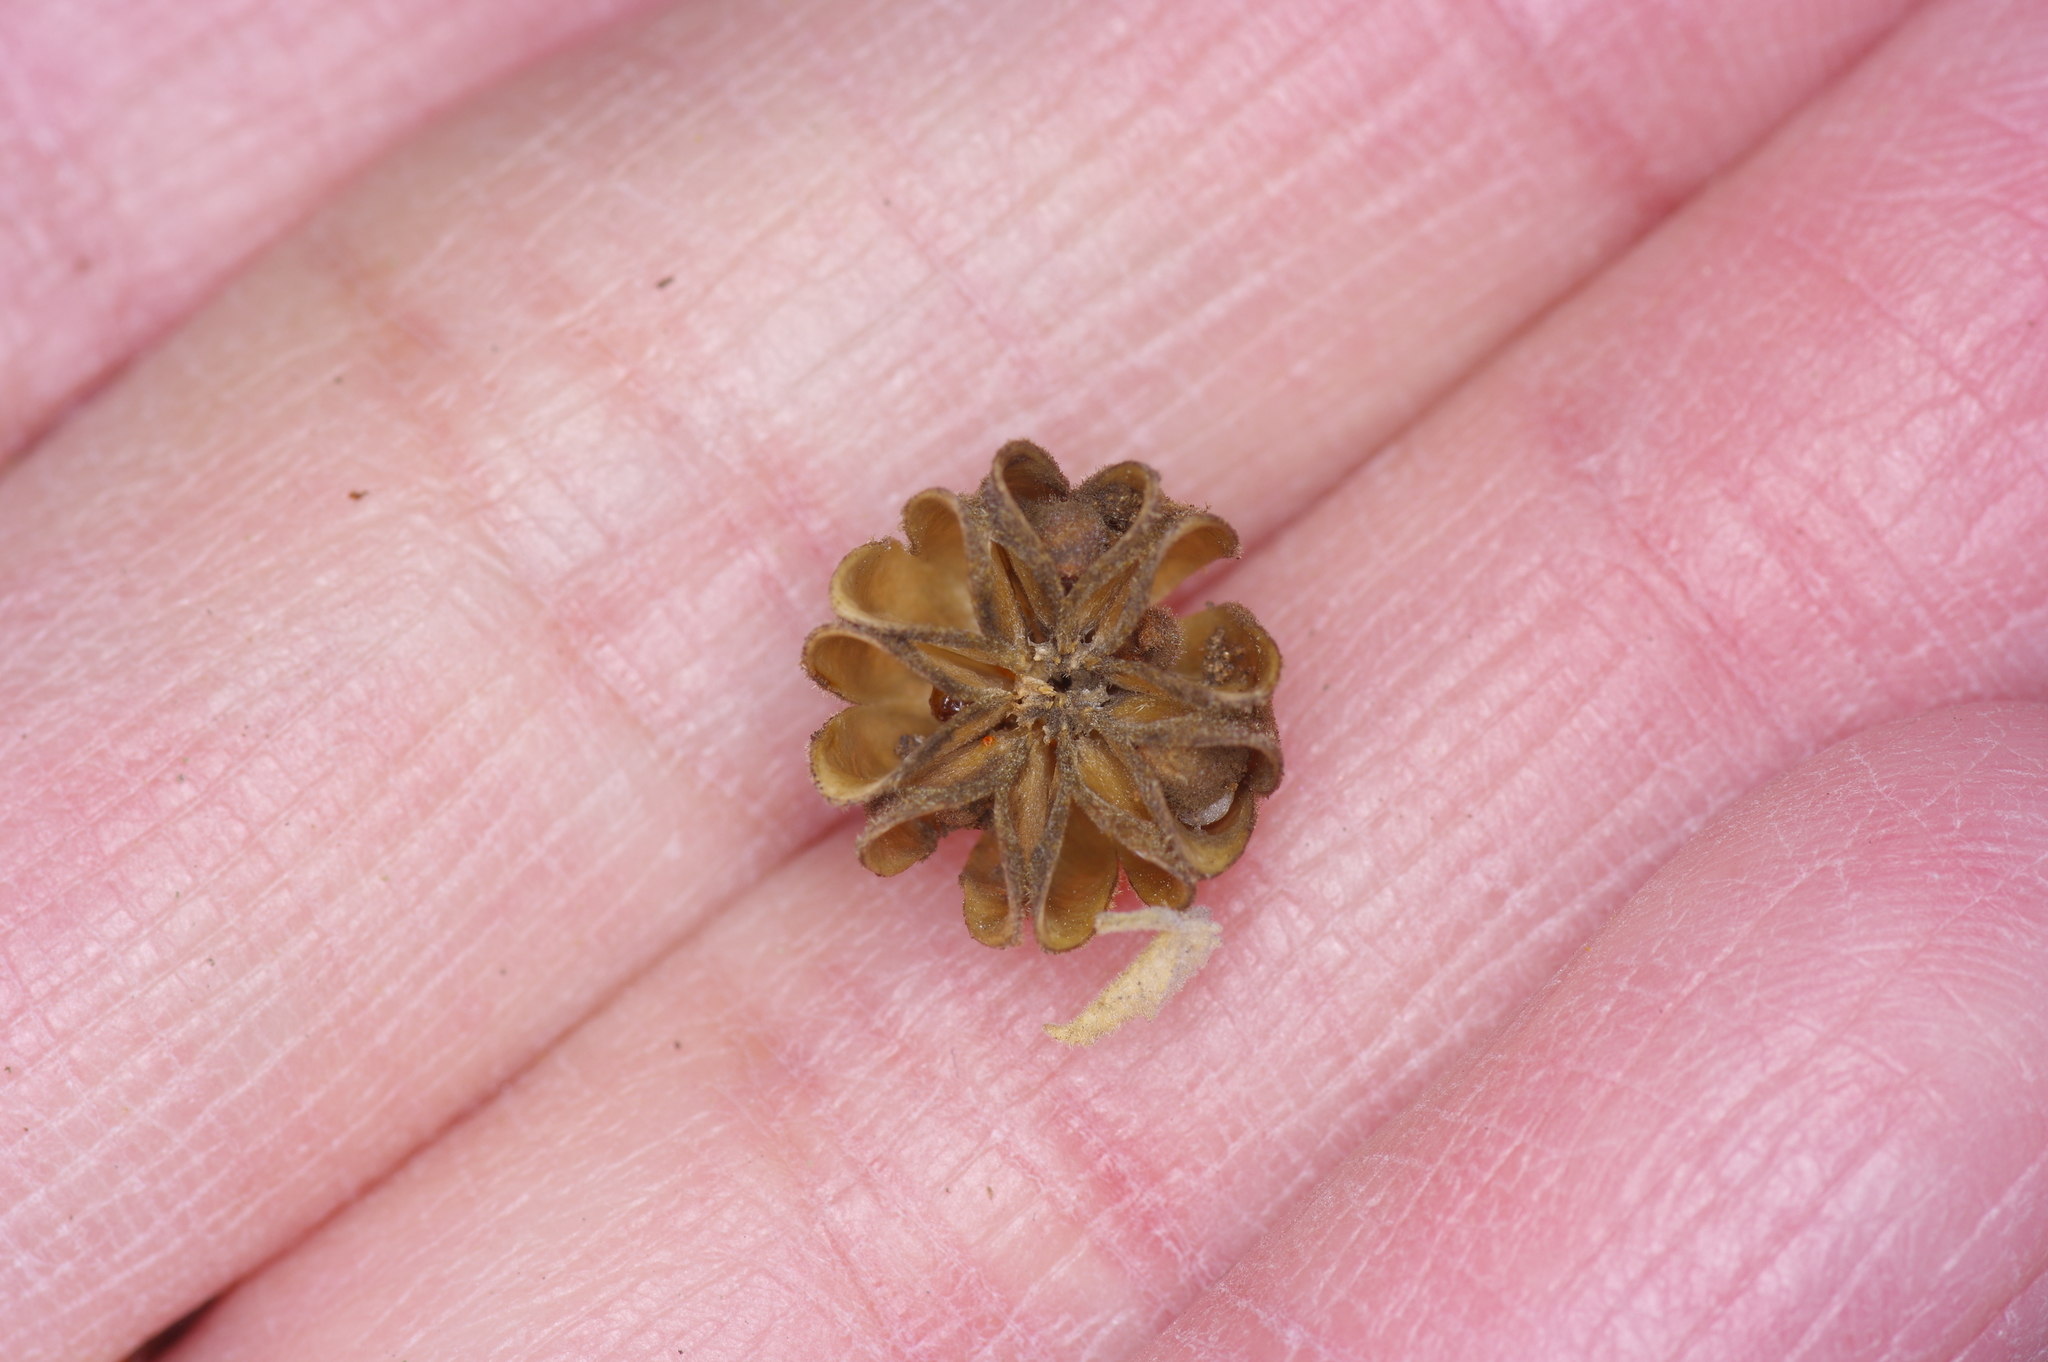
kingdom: Plantae
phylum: Tracheophyta
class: Magnoliopsida
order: Malvales
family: Malvaceae
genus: Abutilon
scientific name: Abutilon fruticosum
